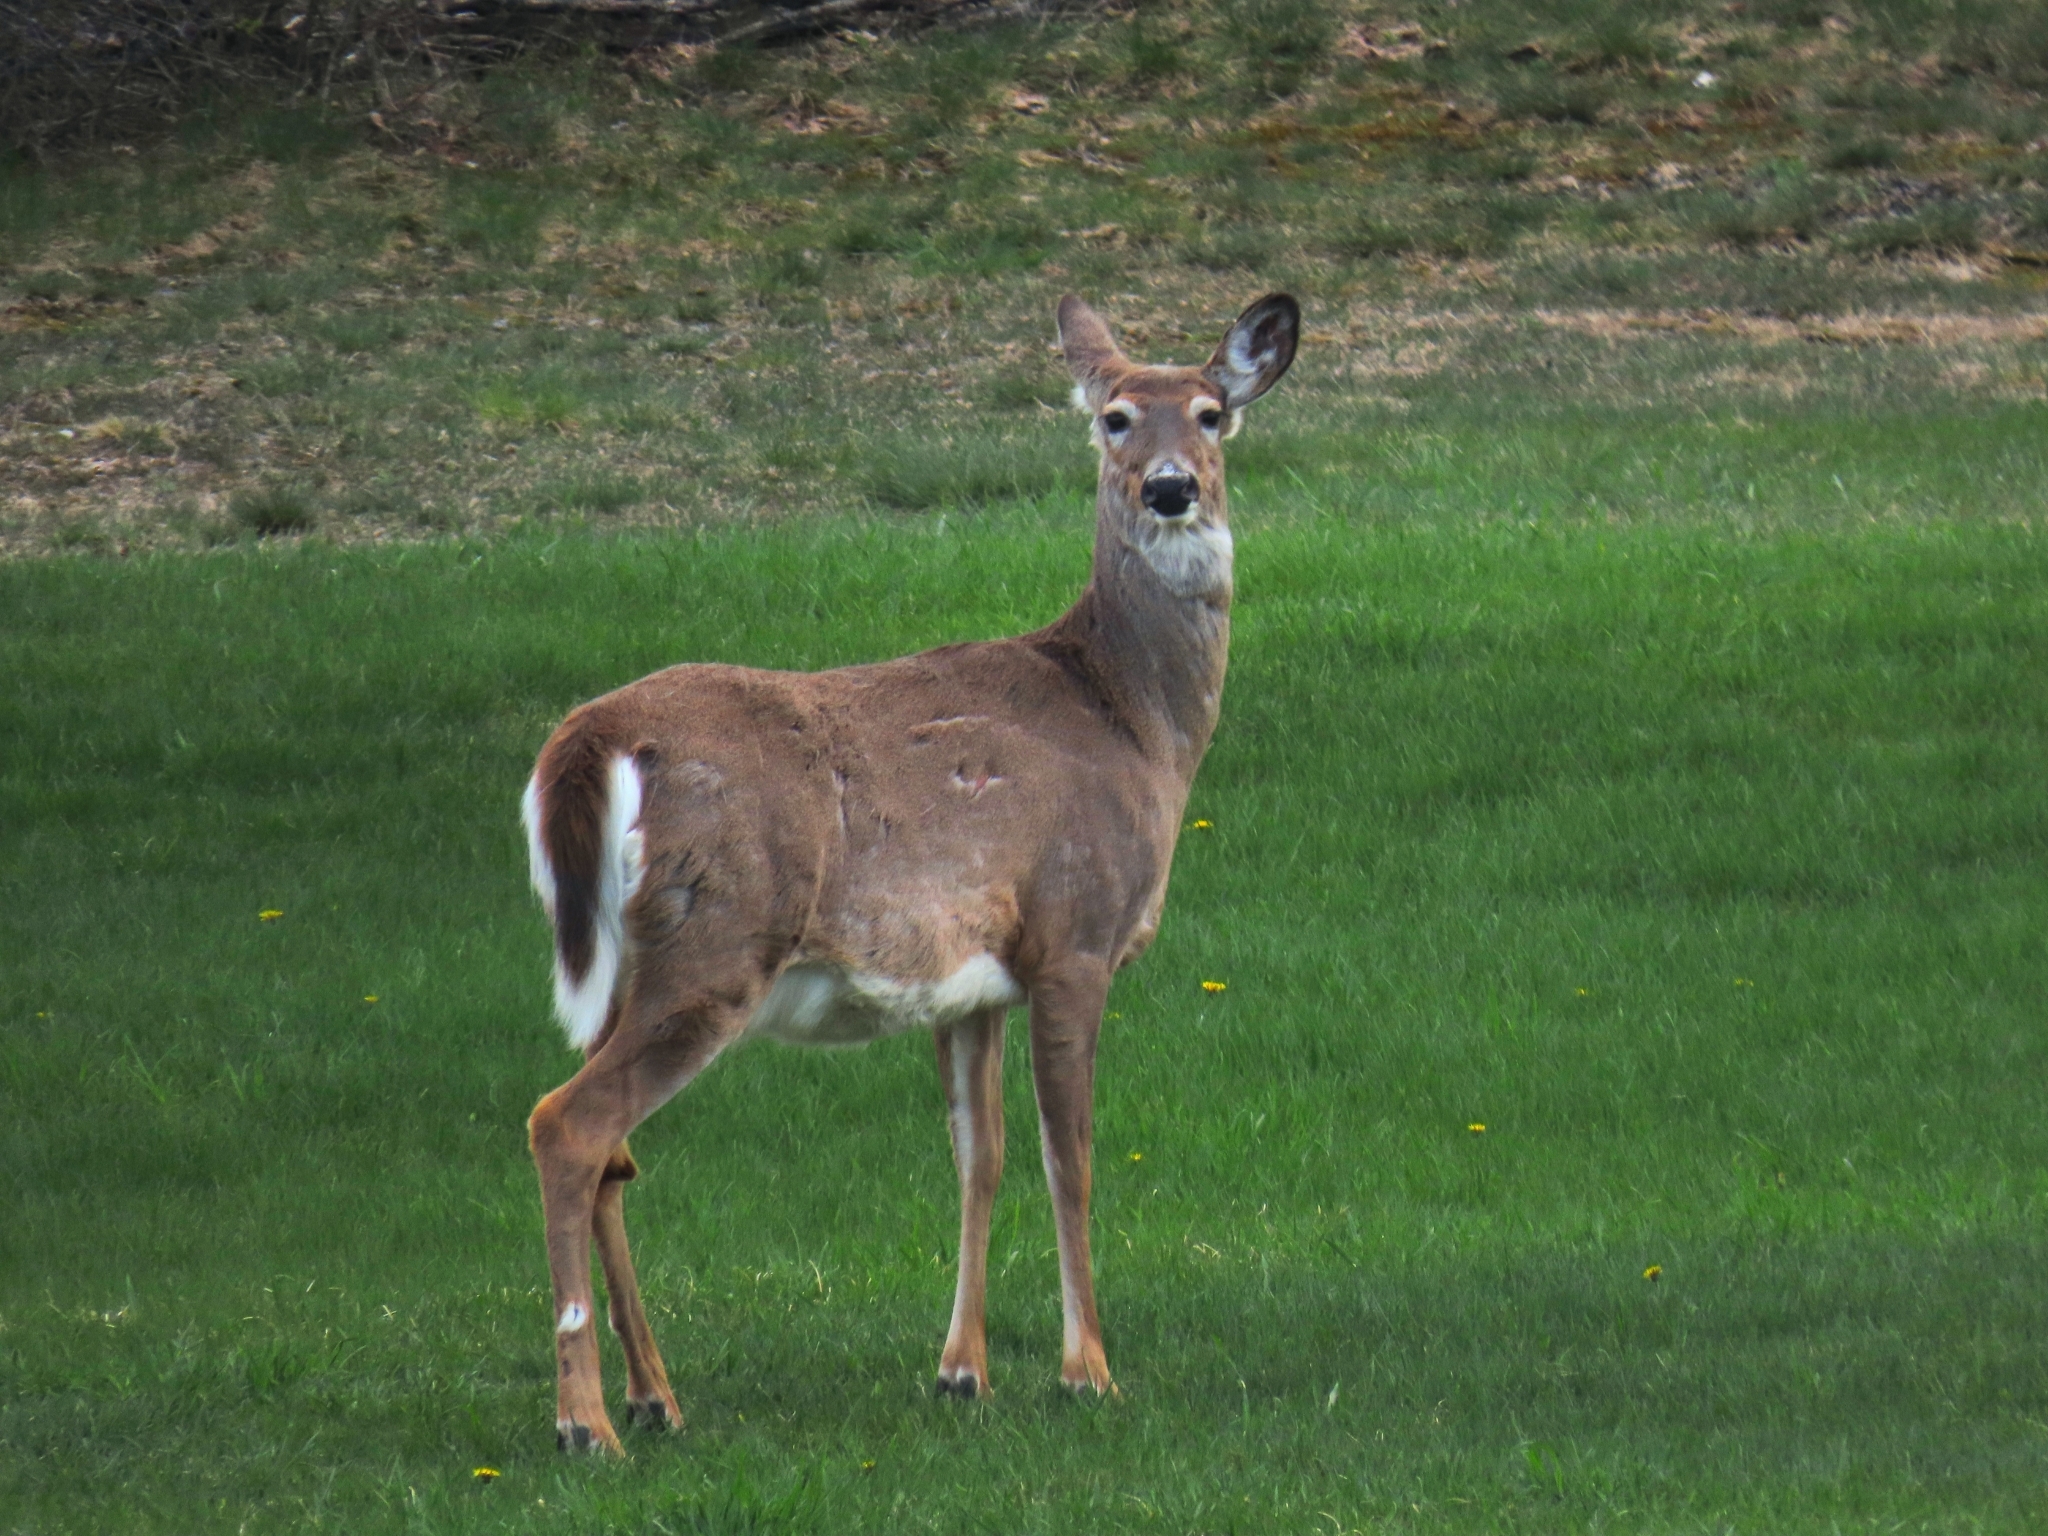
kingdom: Animalia
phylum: Chordata
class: Mammalia
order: Artiodactyla
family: Cervidae
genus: Odocoileus
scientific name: Odocoileus virginianus
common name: White-tailed deer
